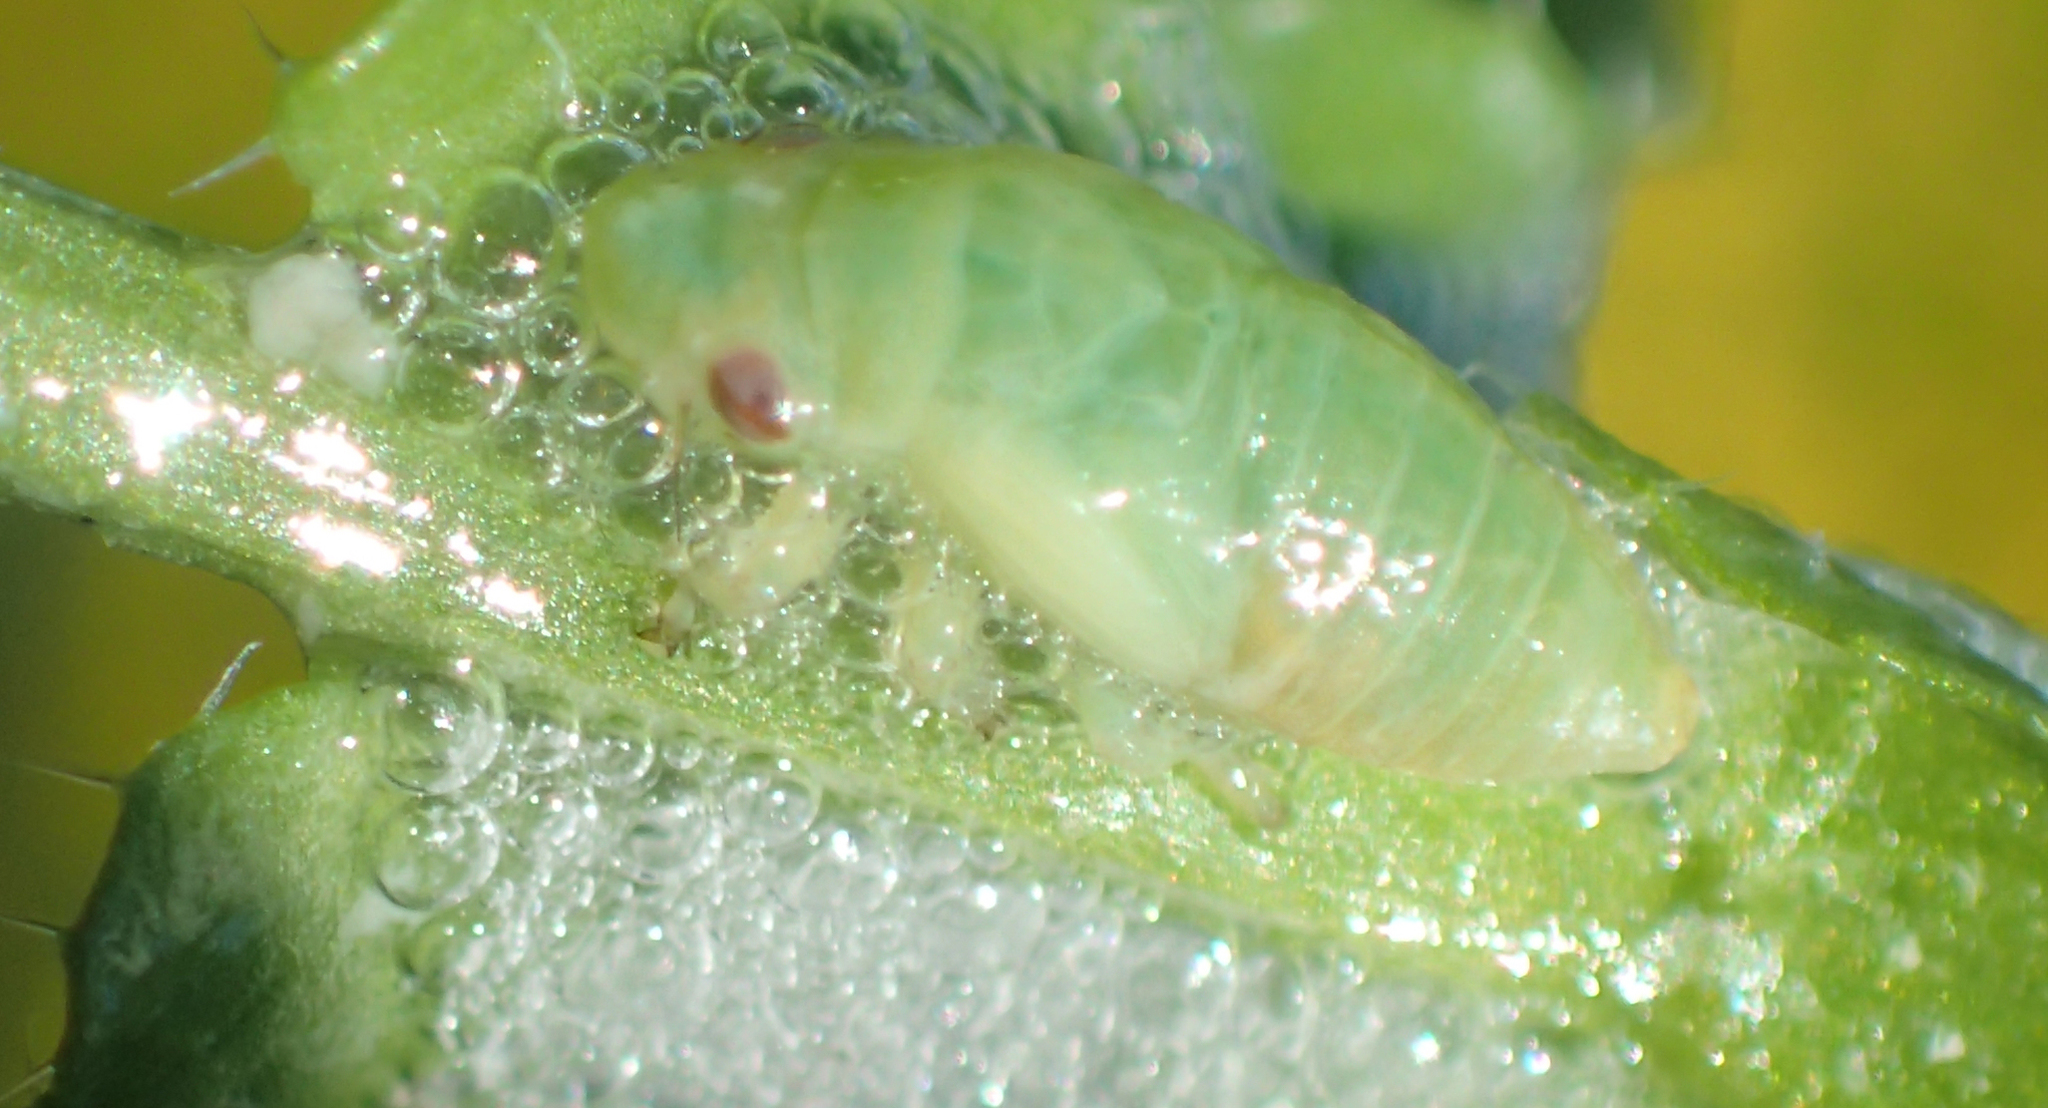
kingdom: Animalia
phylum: Arthropoda
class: Insecta
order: Hemiptera
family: Aphrophoridae
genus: Philaenus
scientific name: Philaenus spumarius
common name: Meadow spittlebug
